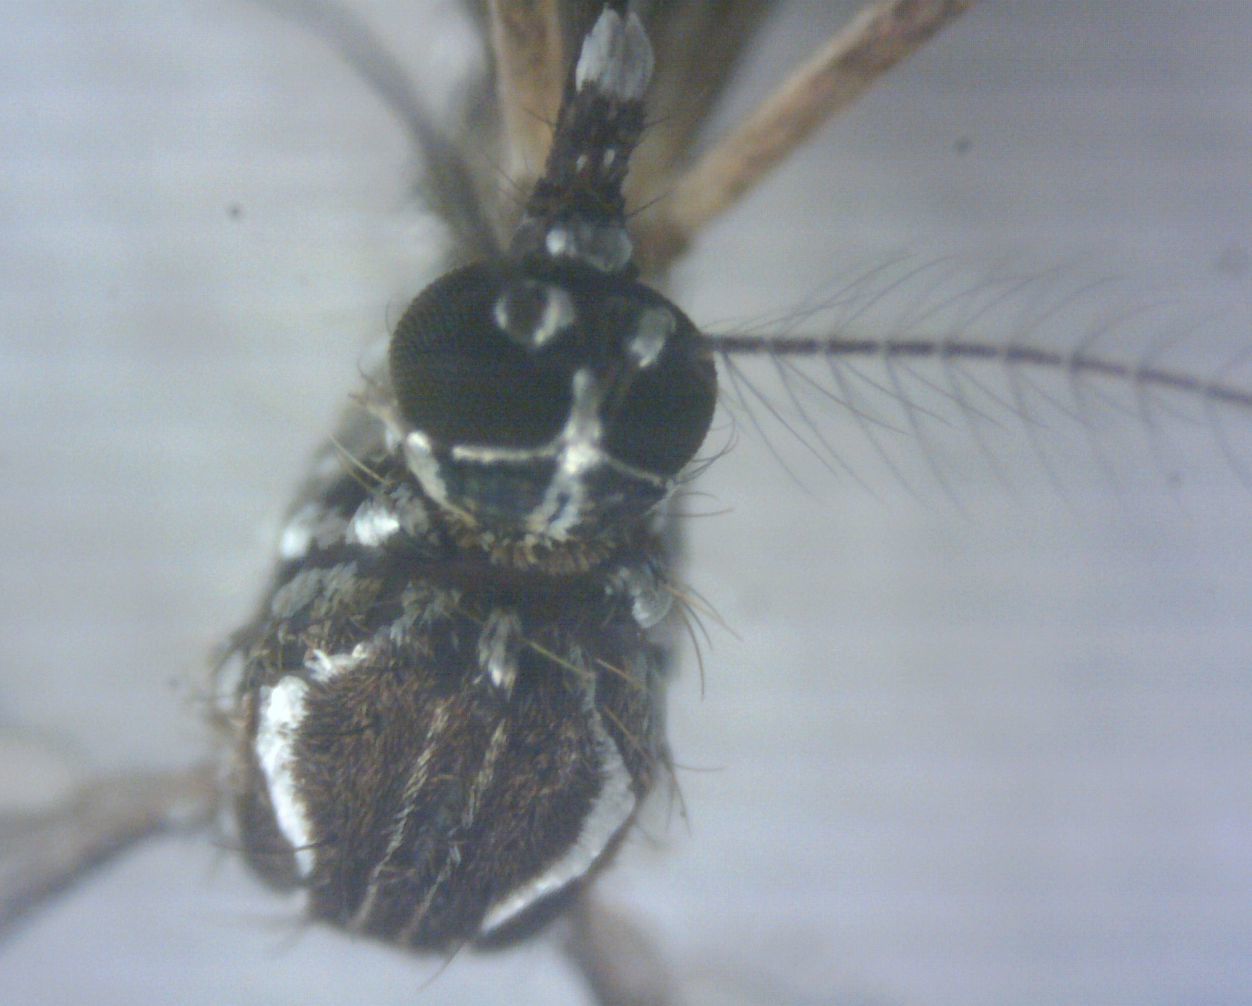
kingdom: Animalia
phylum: Arthropoda
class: Insecta
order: Diptera
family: Culicidae
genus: Aedes
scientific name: Aedes aegypti
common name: Yellow fever mosquito
